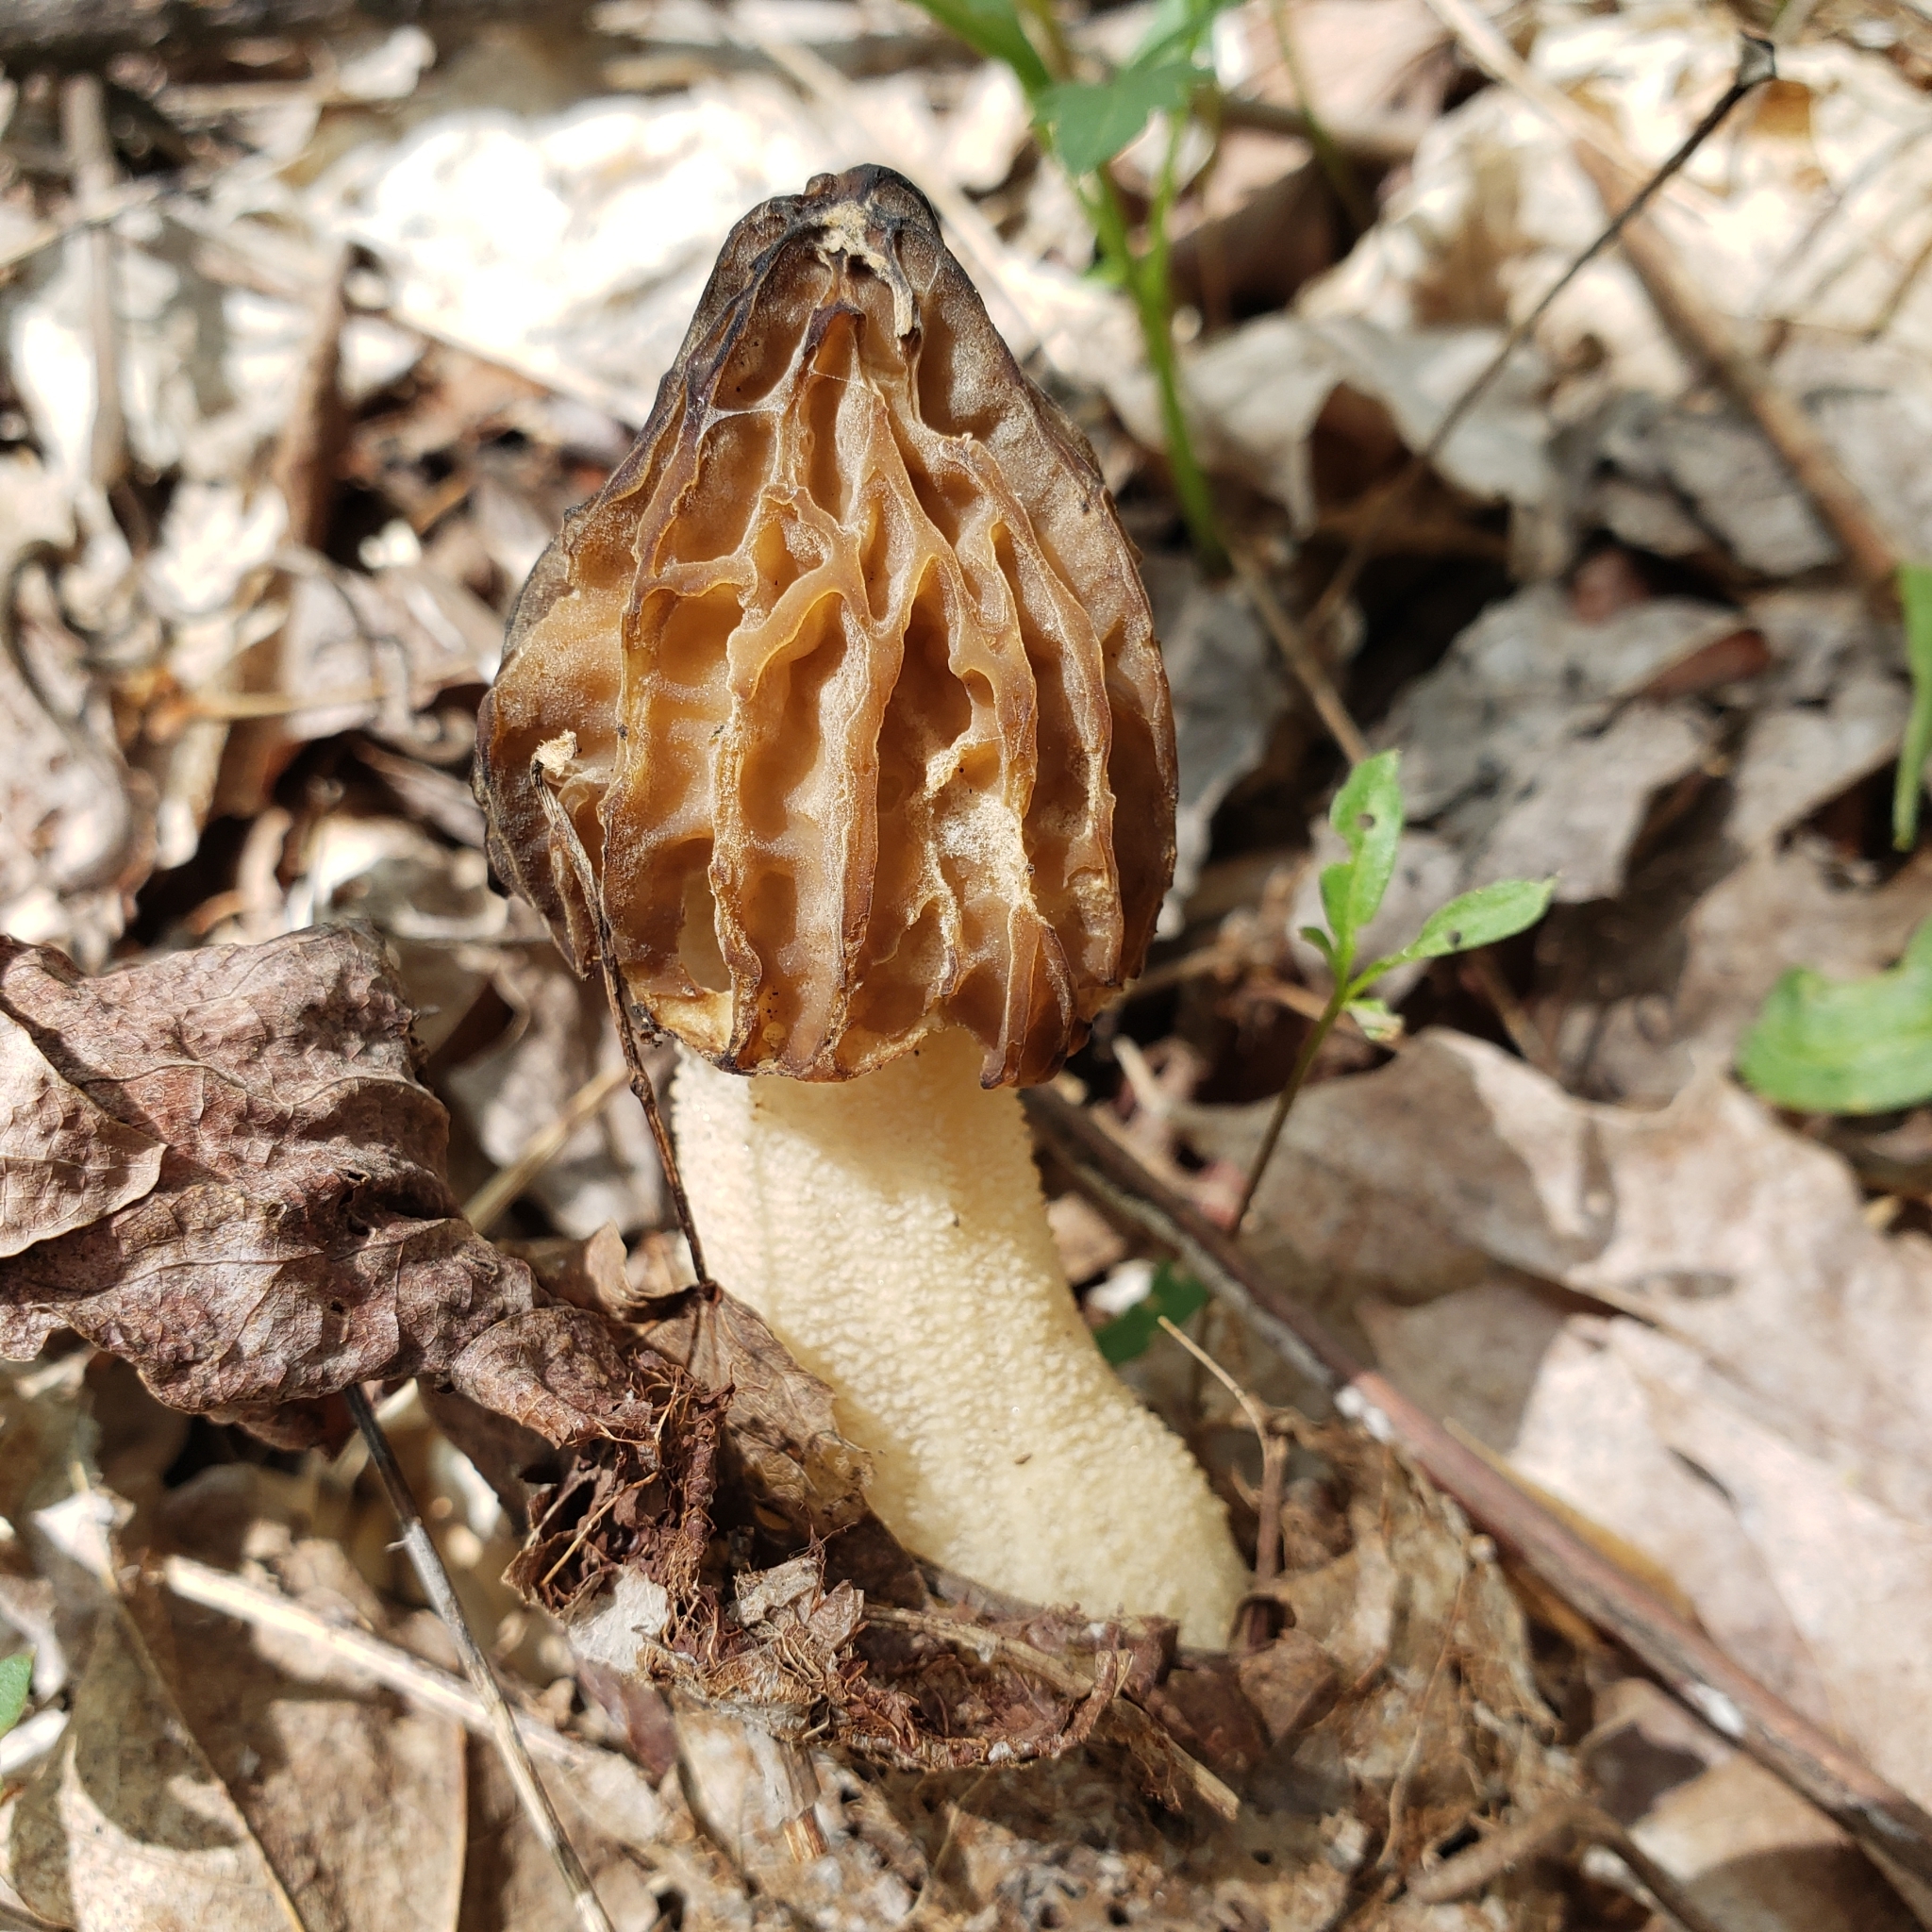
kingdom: Fungi
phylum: Ascomycota
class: Pezizomycetes
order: Pezizales
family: Morchellaceae
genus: Morchella
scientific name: Morchella punctipes
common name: Half-free morel
